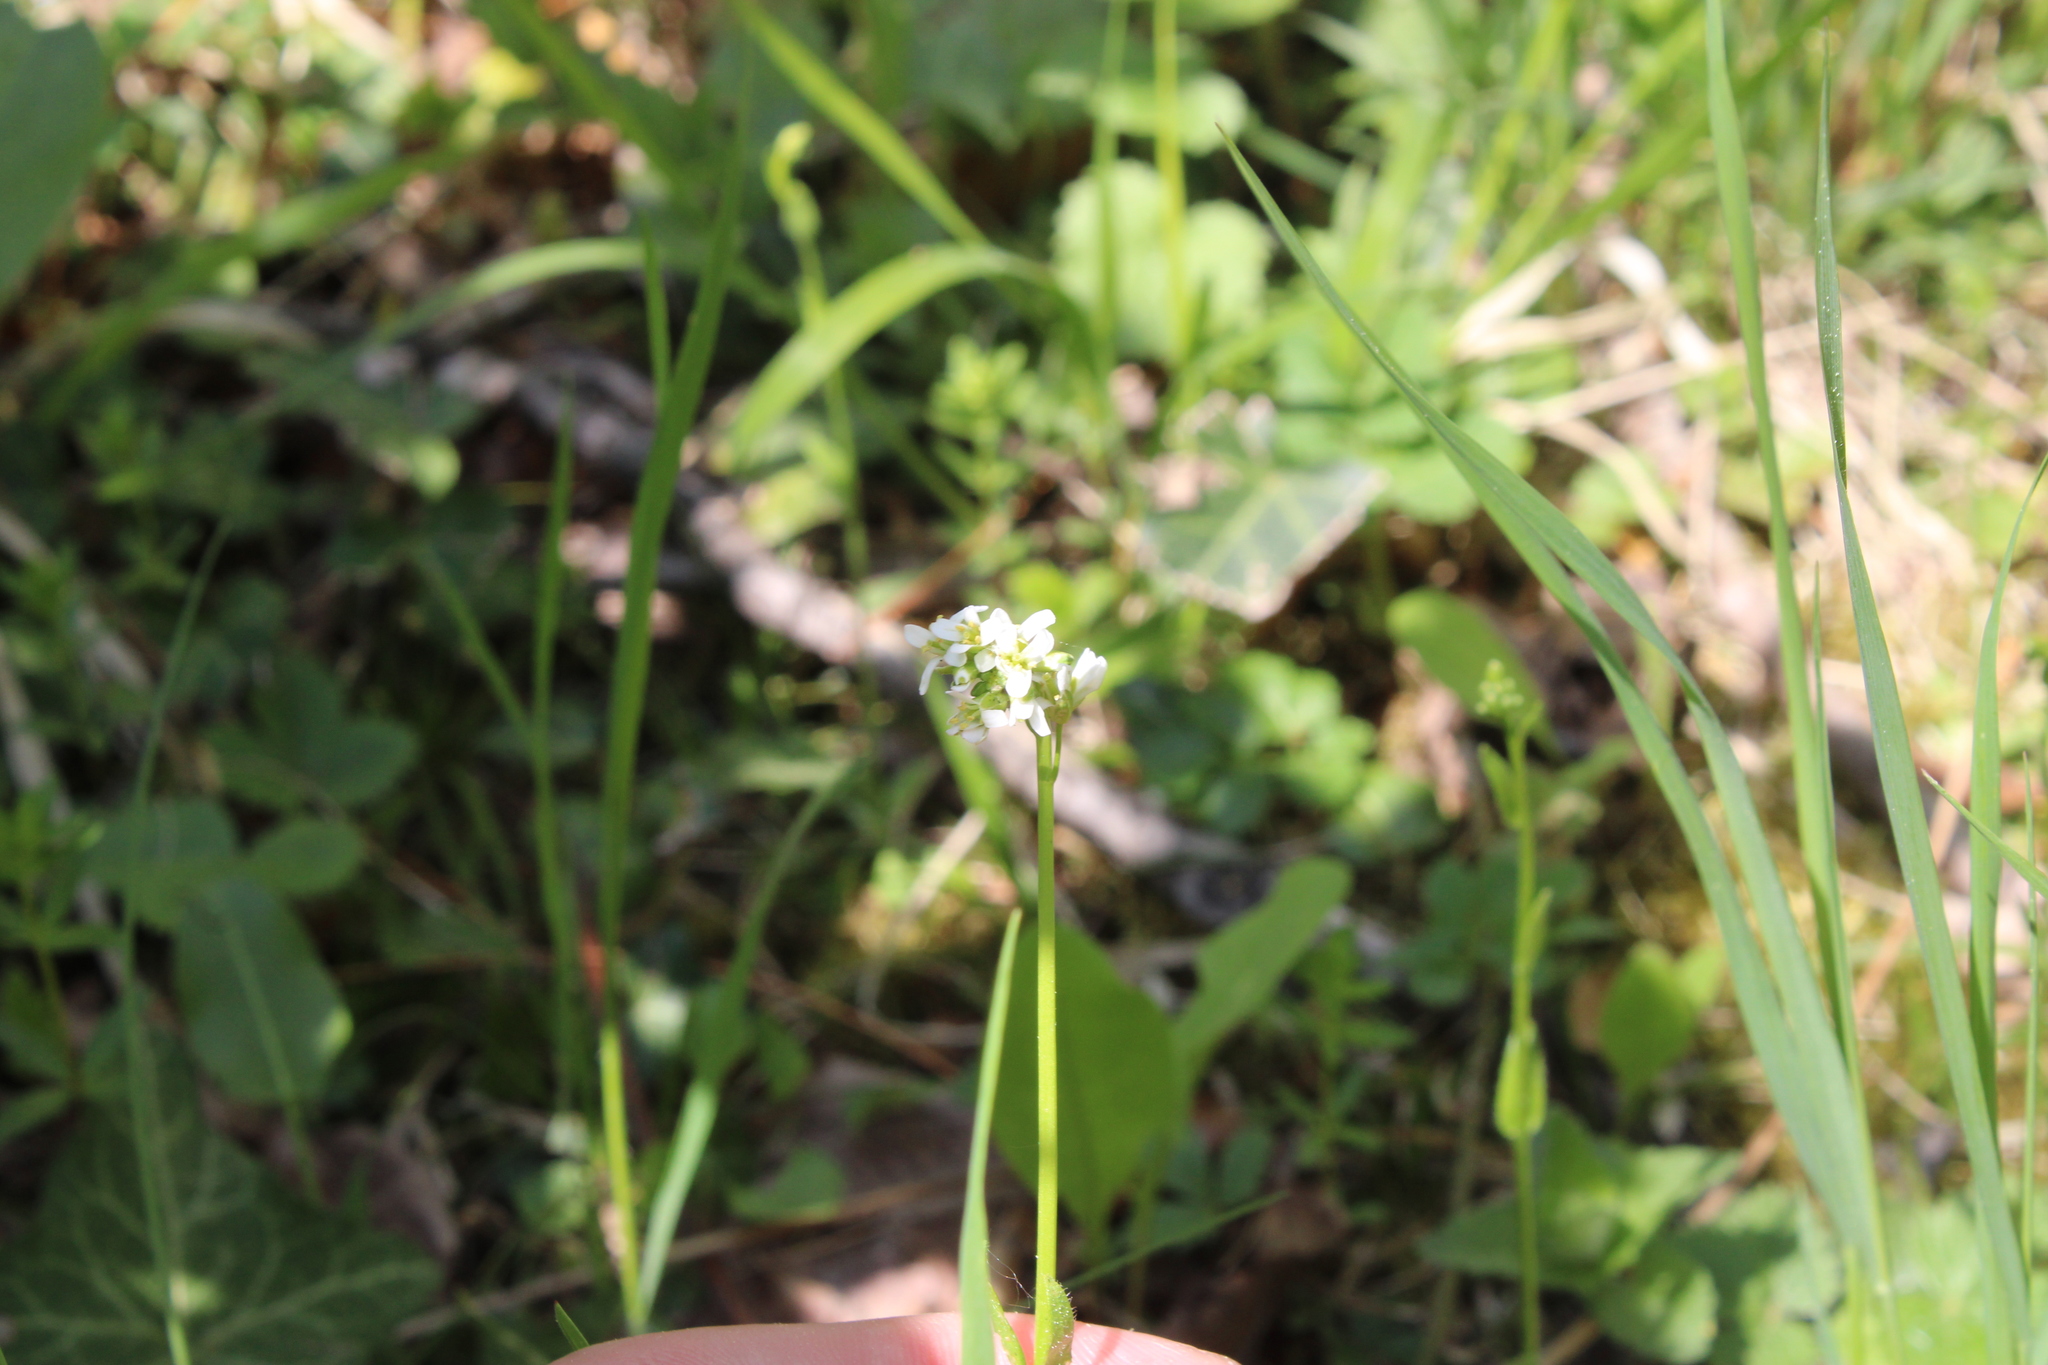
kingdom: Plantae
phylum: Tracheophyta
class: Magnoliopsida
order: Brassicales
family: Brassicaceae
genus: Arabis
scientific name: Arabis hirsuta
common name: Hairy rock-cress
